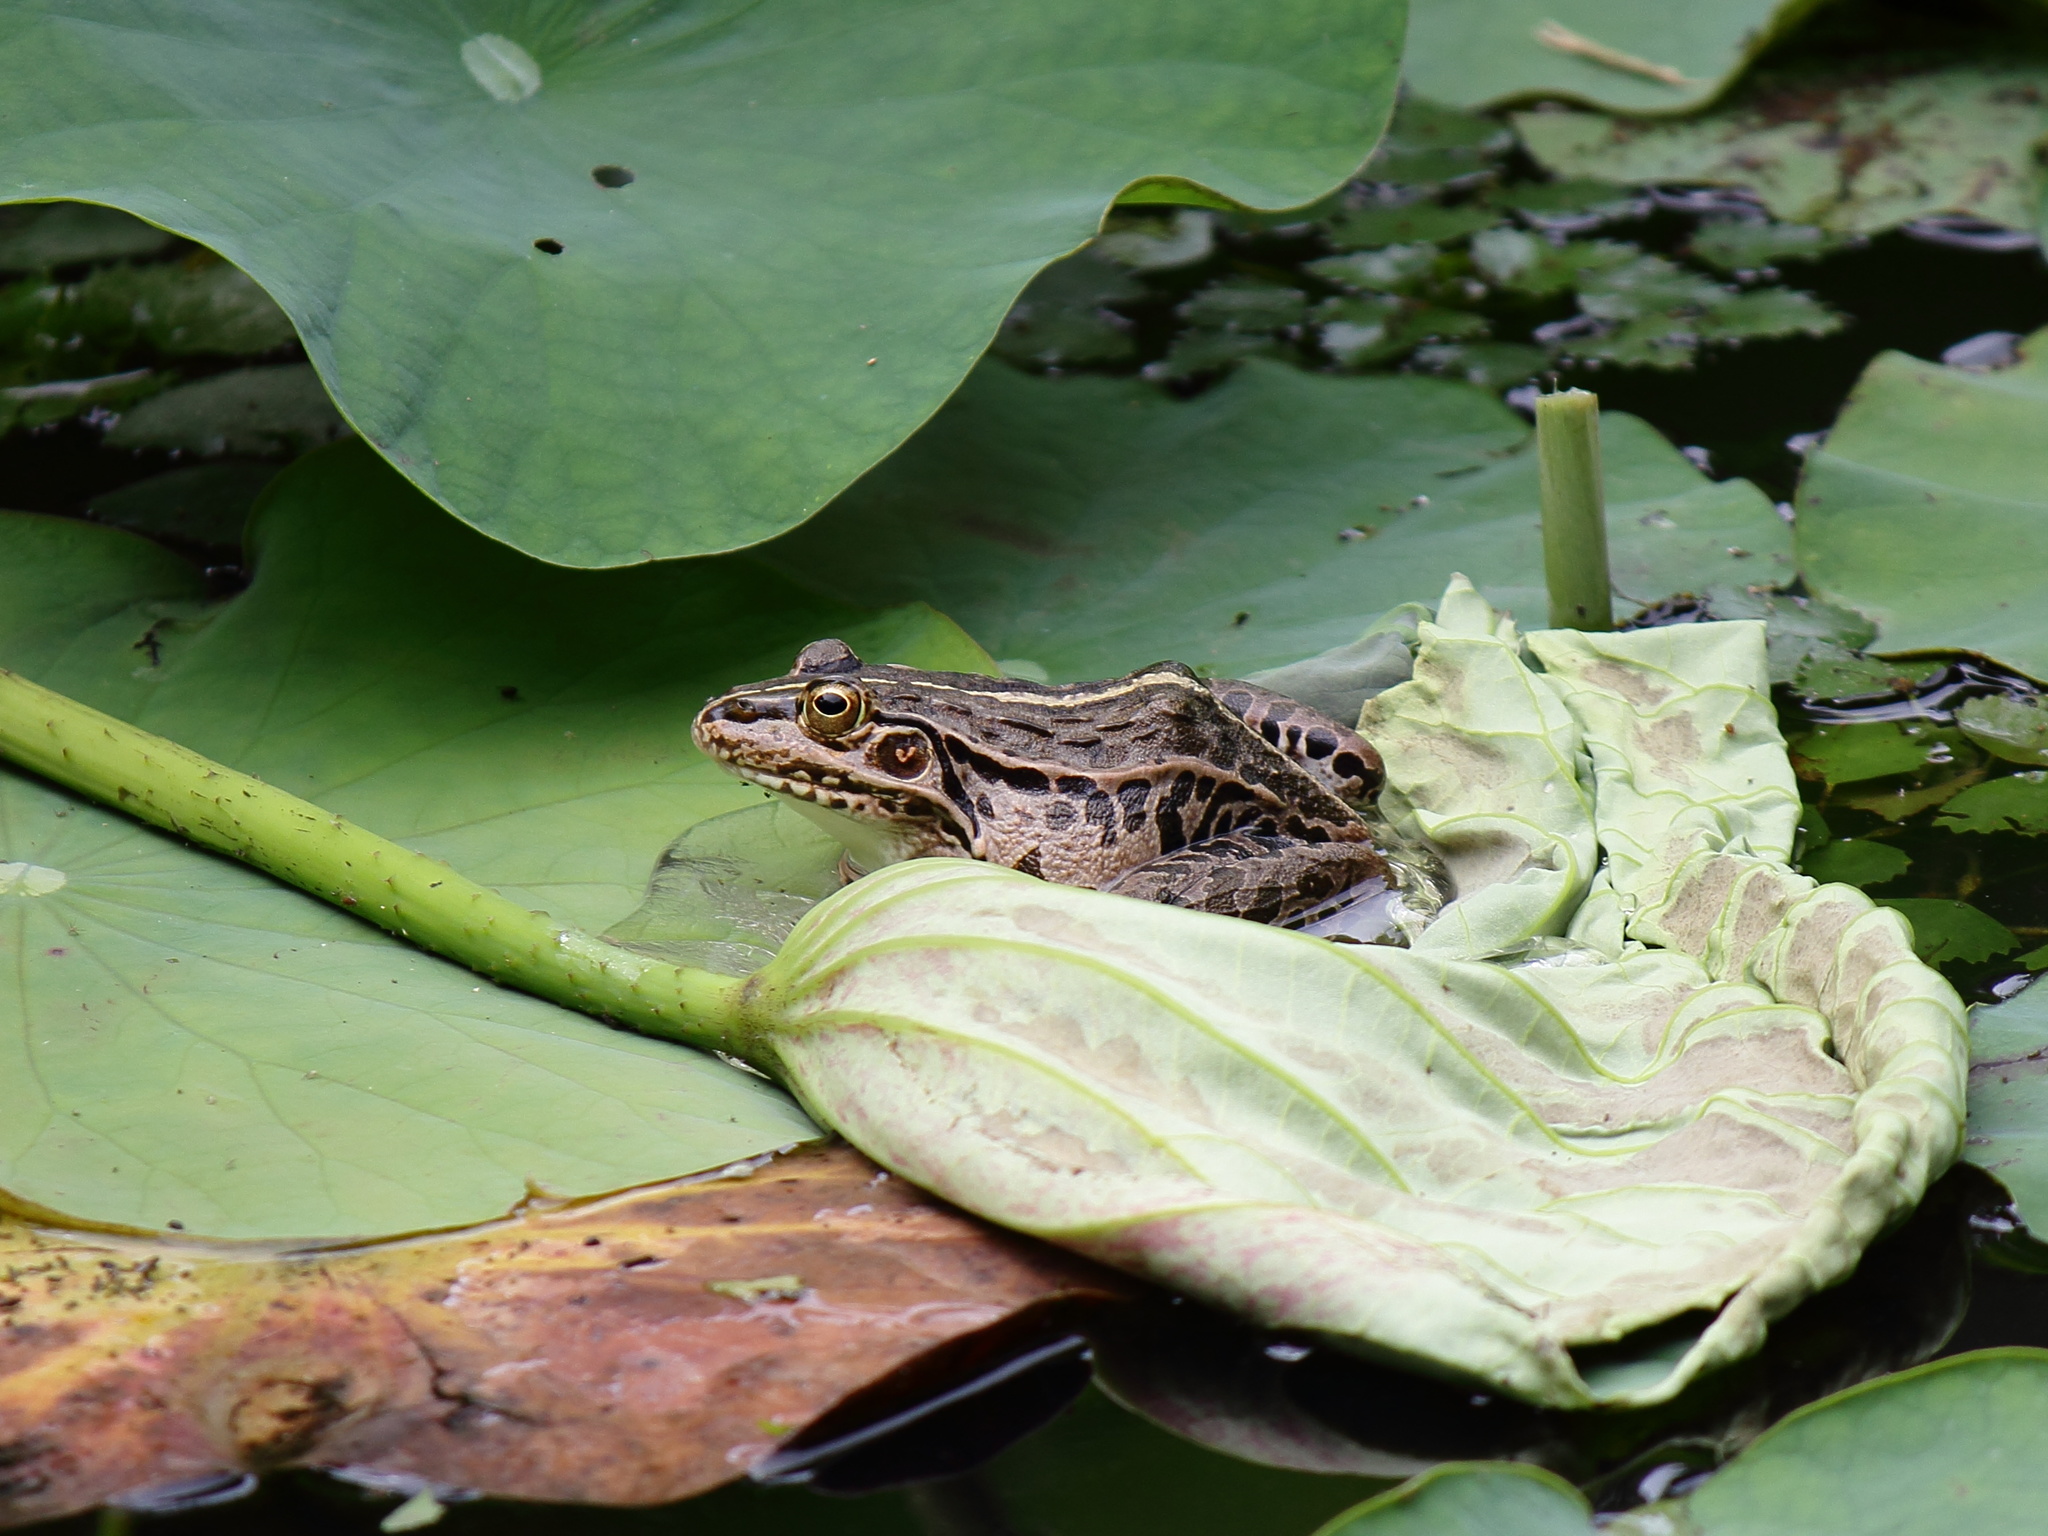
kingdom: Animalia
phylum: Chordata
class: Amphibia
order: Anura
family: Ranidae
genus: Pelophylax
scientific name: Pelophylax nigromaculatus
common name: Black-spotted pond frog
